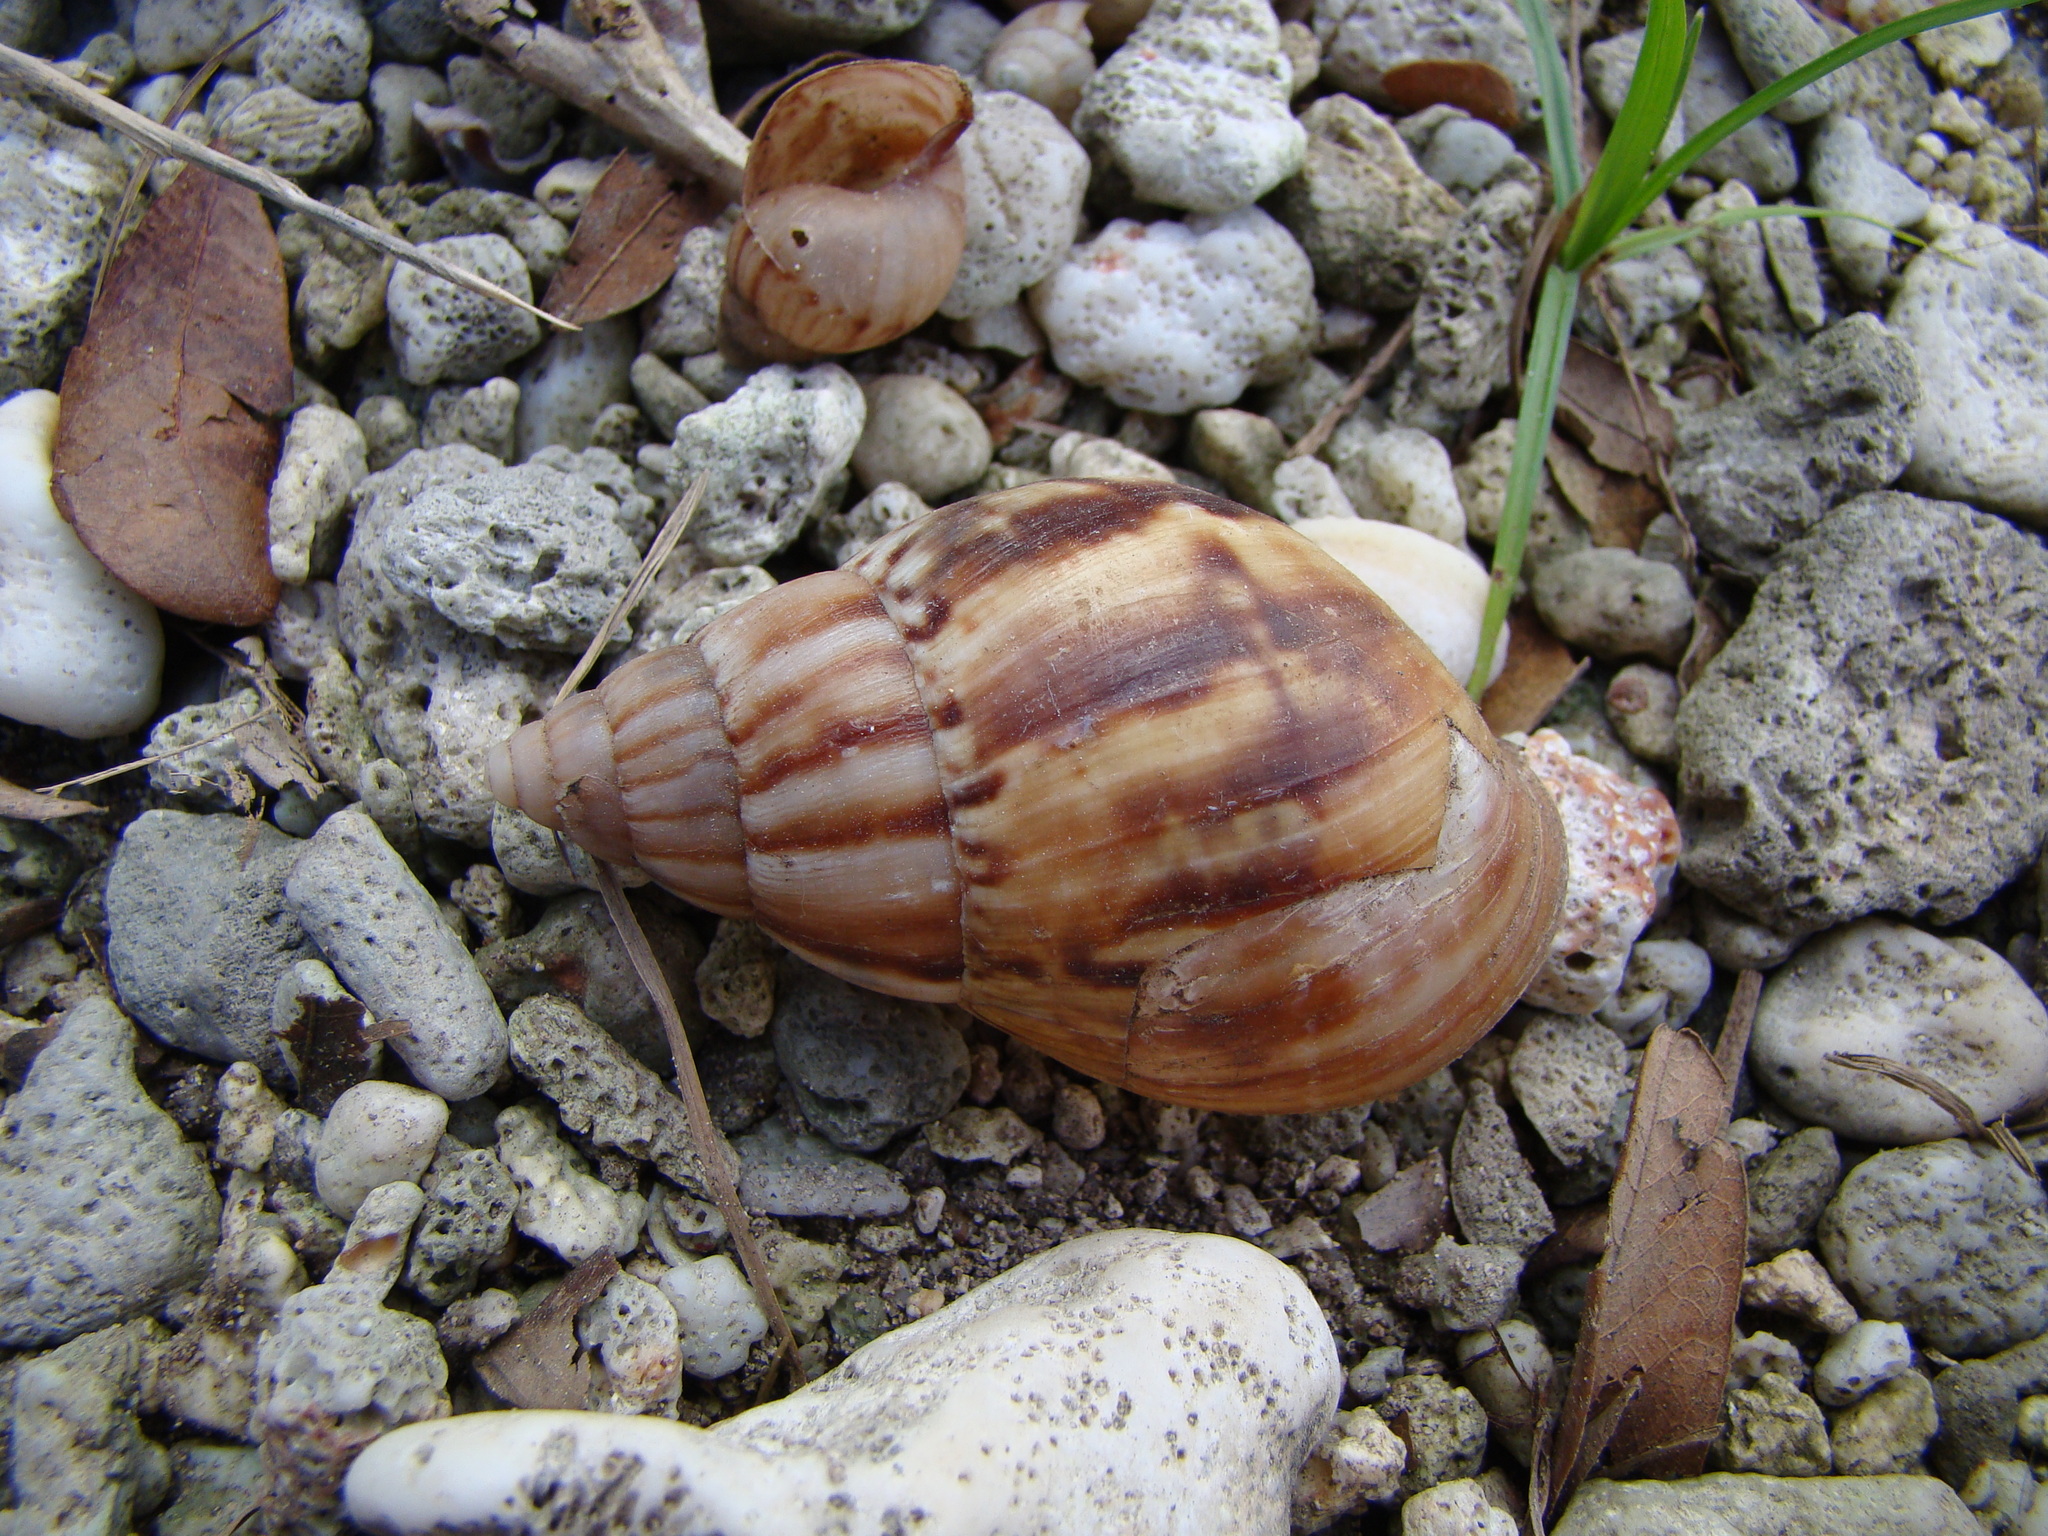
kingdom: Animalia
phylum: Mollusca
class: Gastropoda
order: Stylommatophora
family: Achatinidae
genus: Lissachatina
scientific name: Lissachatina fulica
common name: Giant african snail
